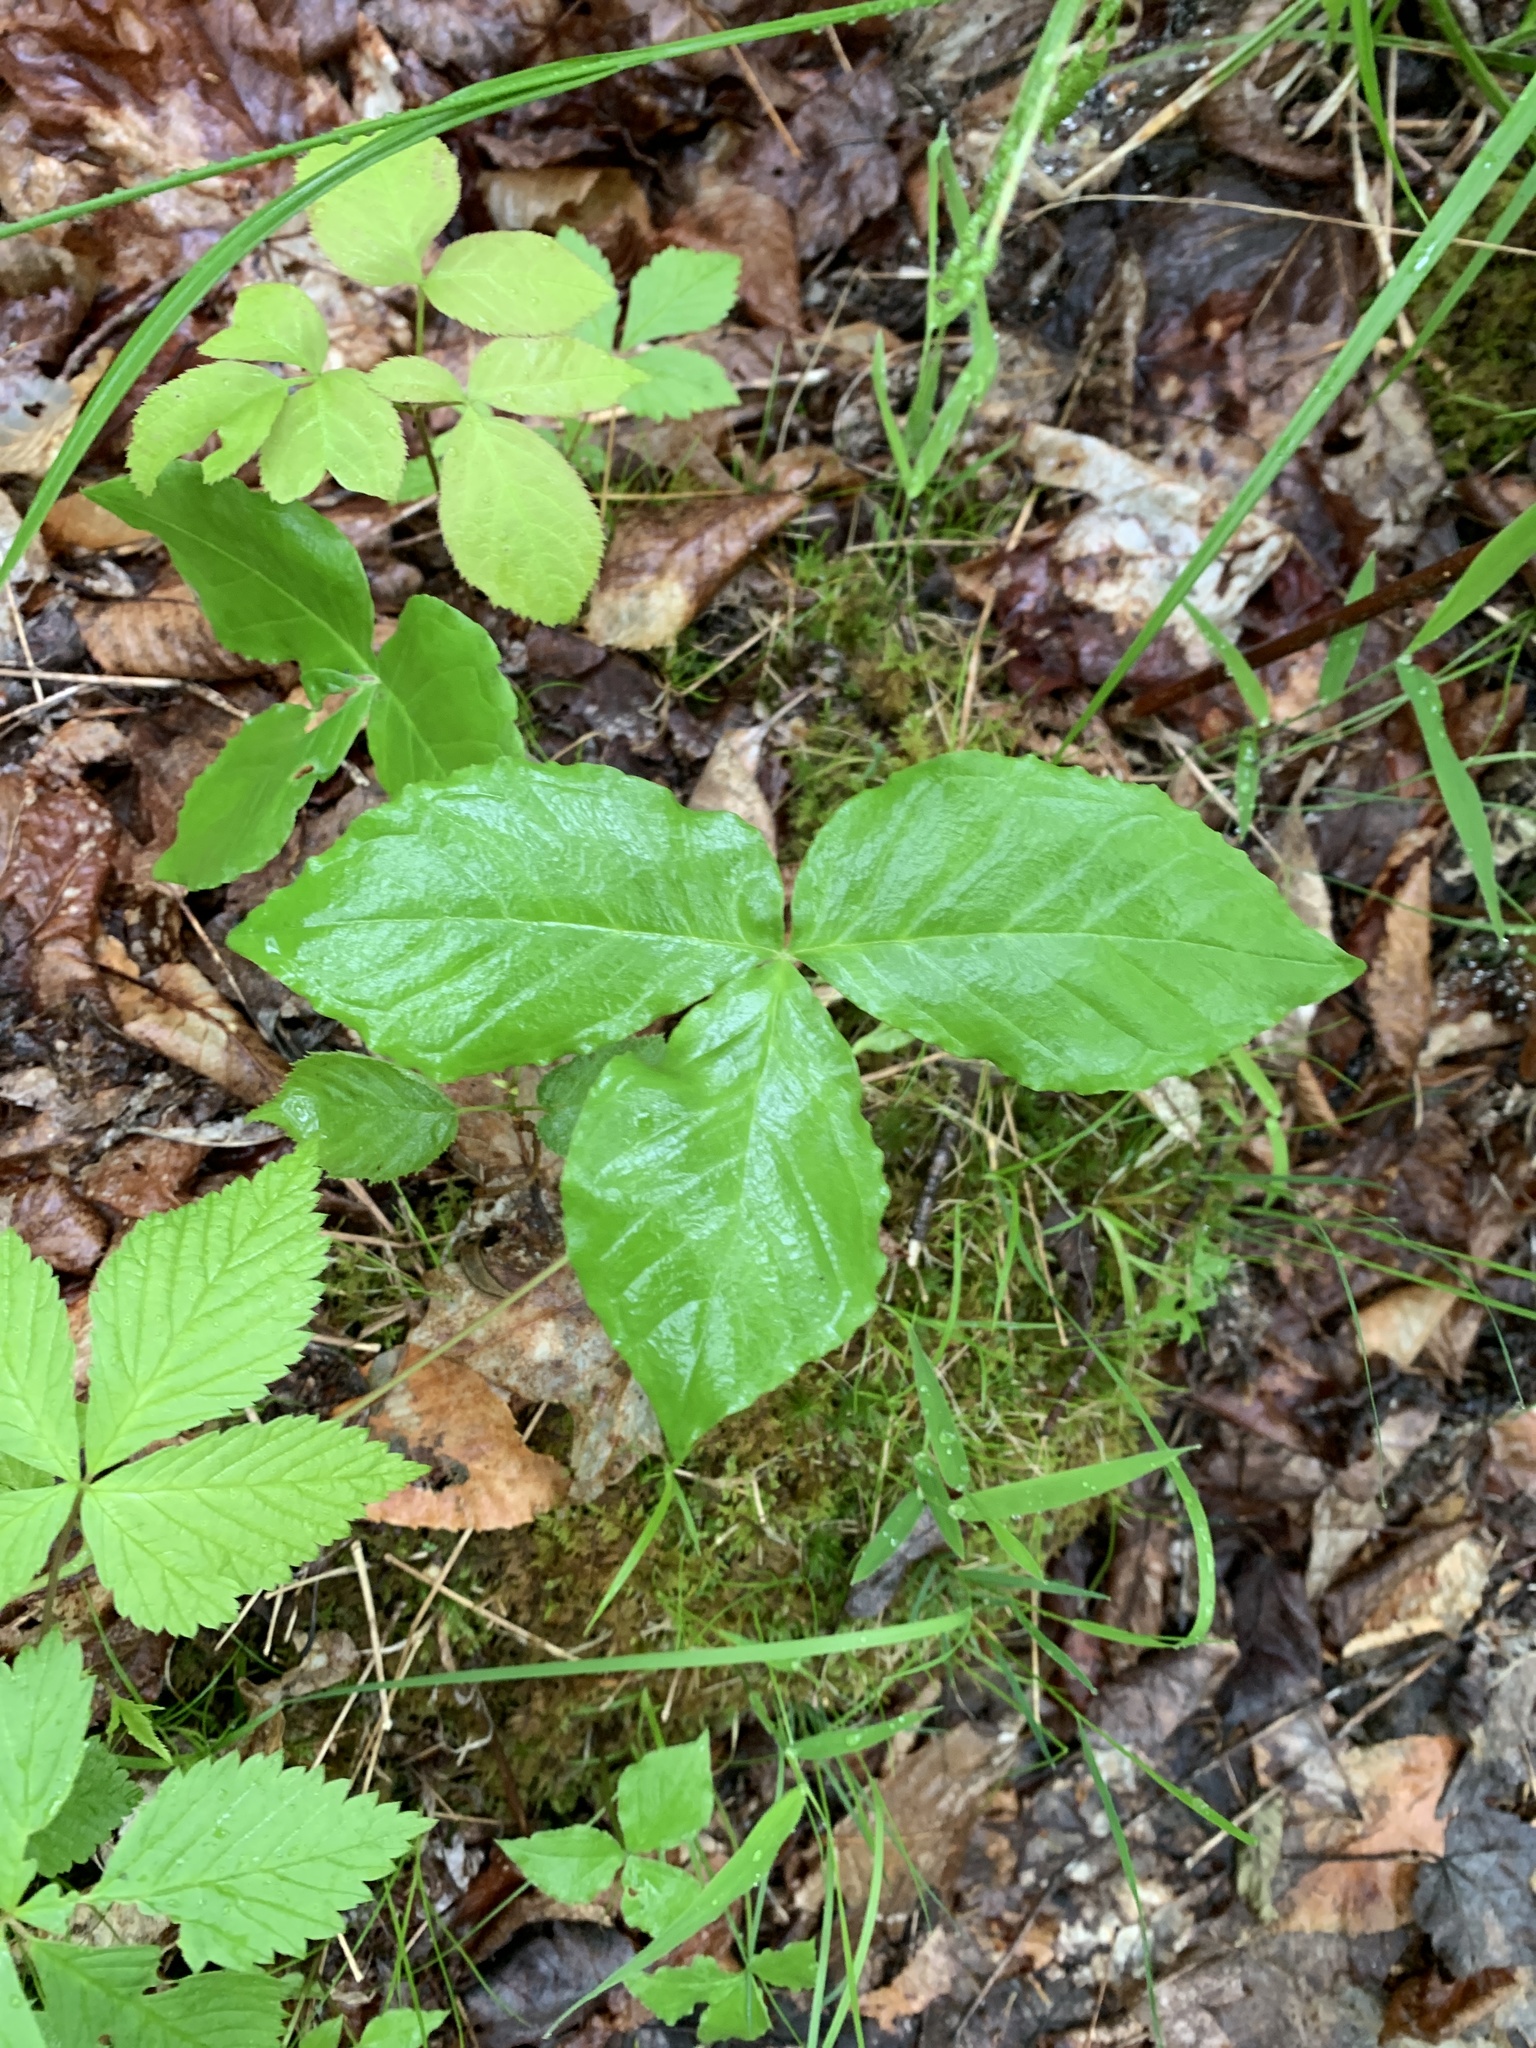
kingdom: Plantae
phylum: Tracheophyta
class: Liliopsida
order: Alismatales
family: Araceae
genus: Arisaema
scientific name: Arisaema triphyllum
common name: Jack-in-the-pulpit
